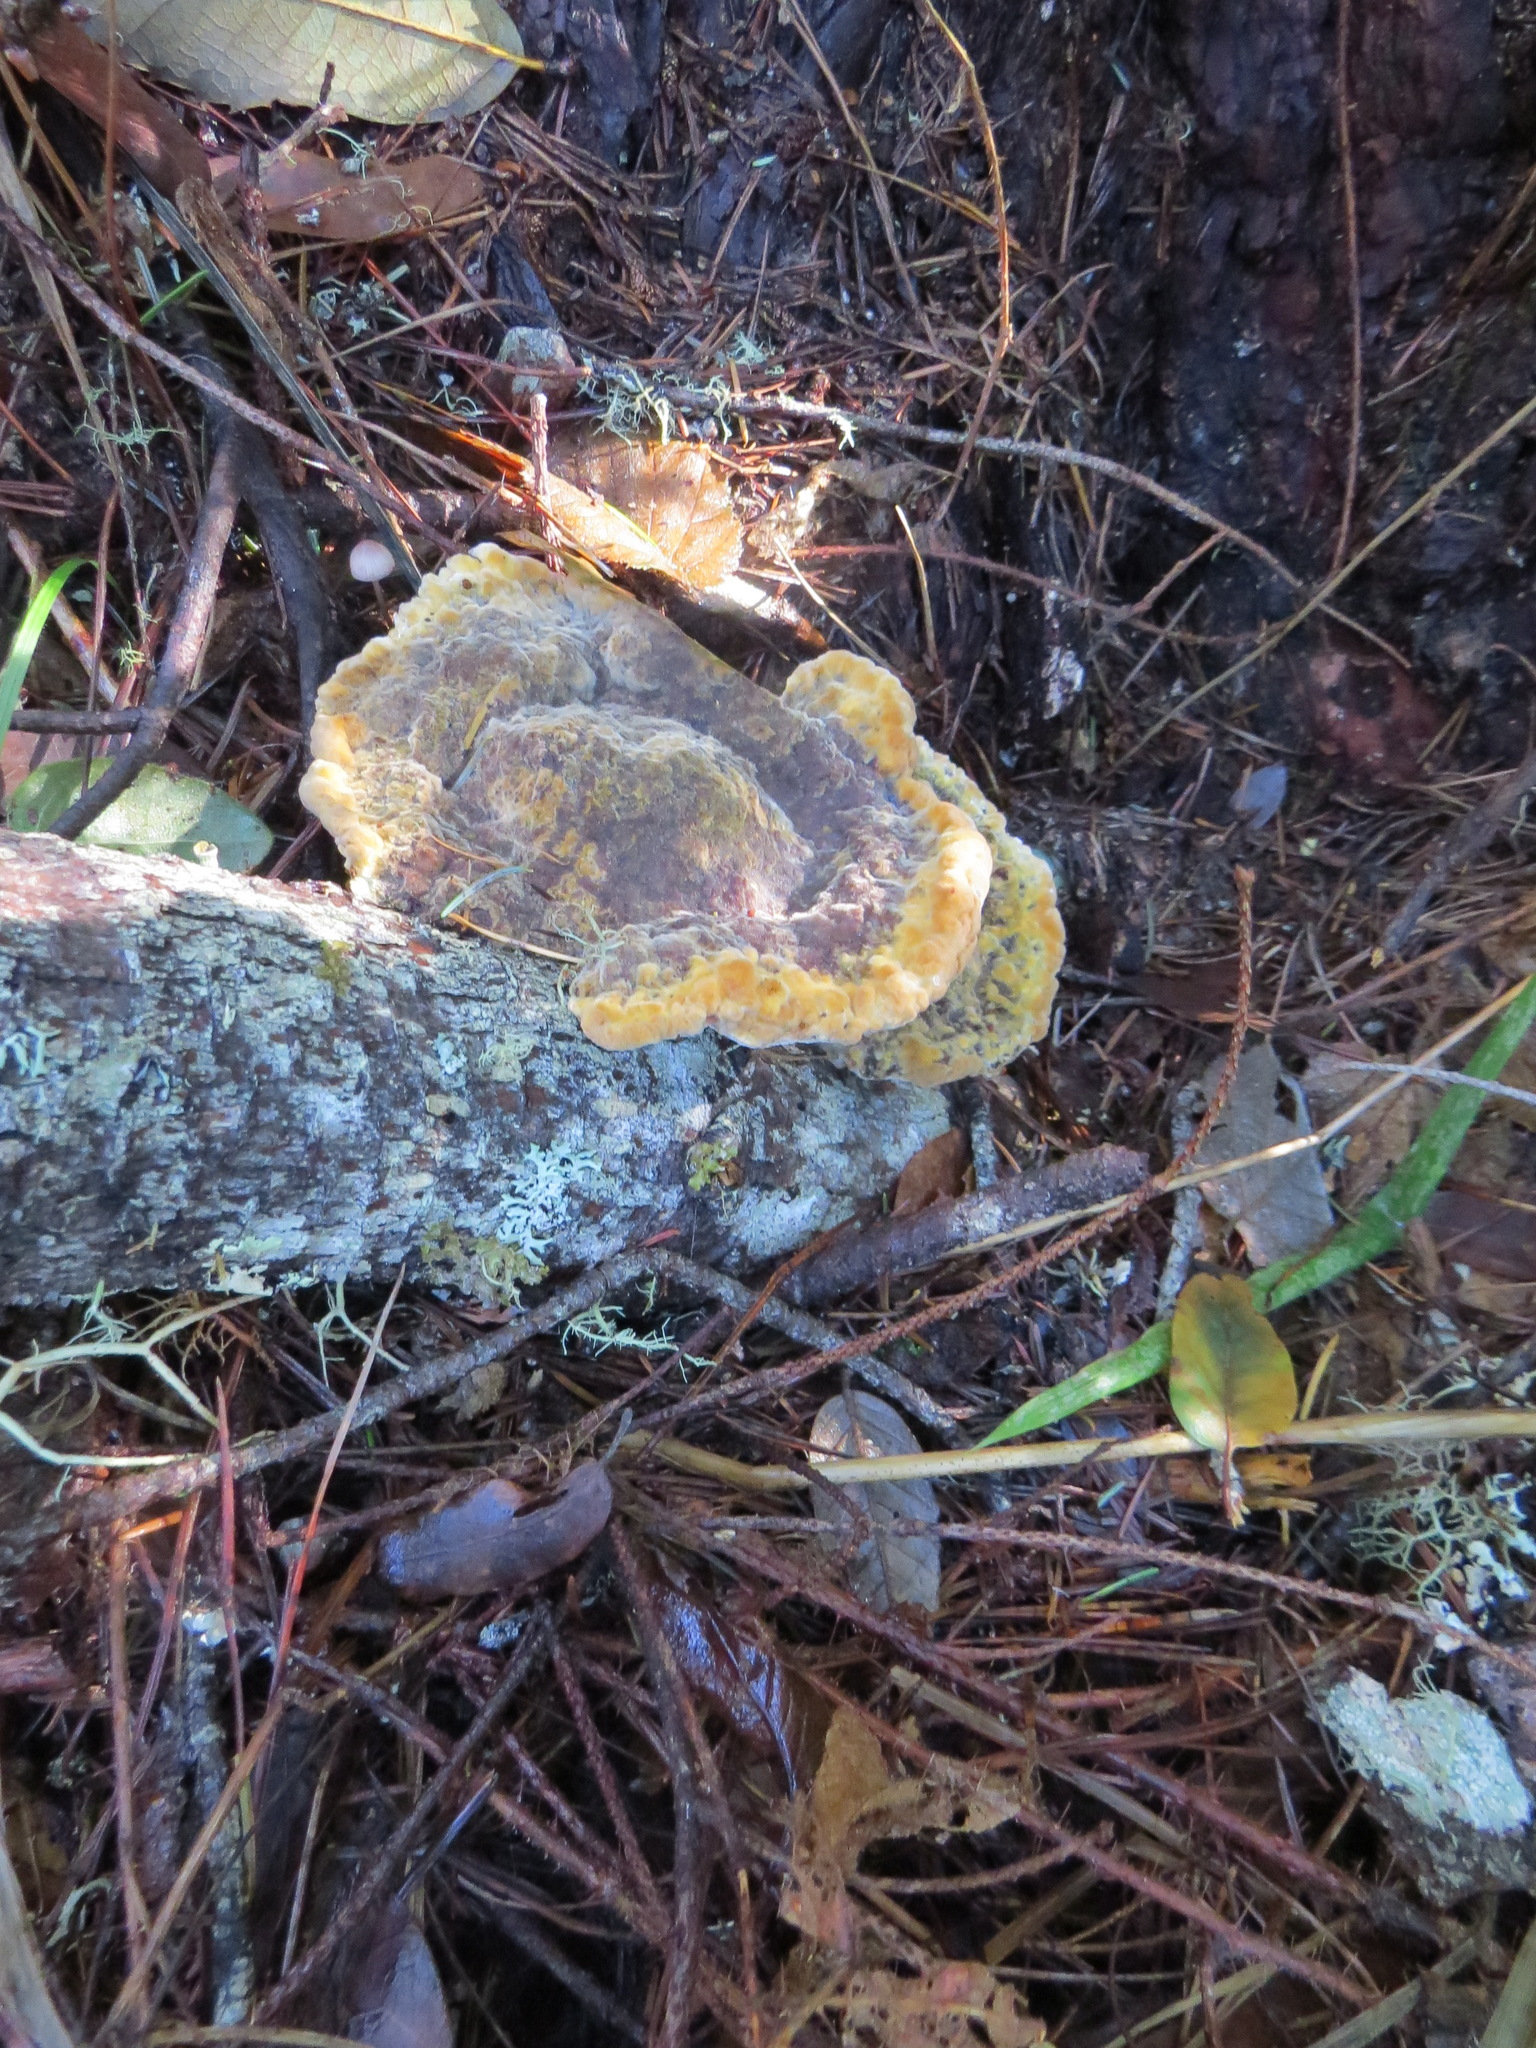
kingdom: Fungi
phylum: Basidiomycota
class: Agaricomycetes
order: Polyporales
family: Laetiporaceae
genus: Phaeolus
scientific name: Phaeolus schweinitzii
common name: Dyer's mazegill
